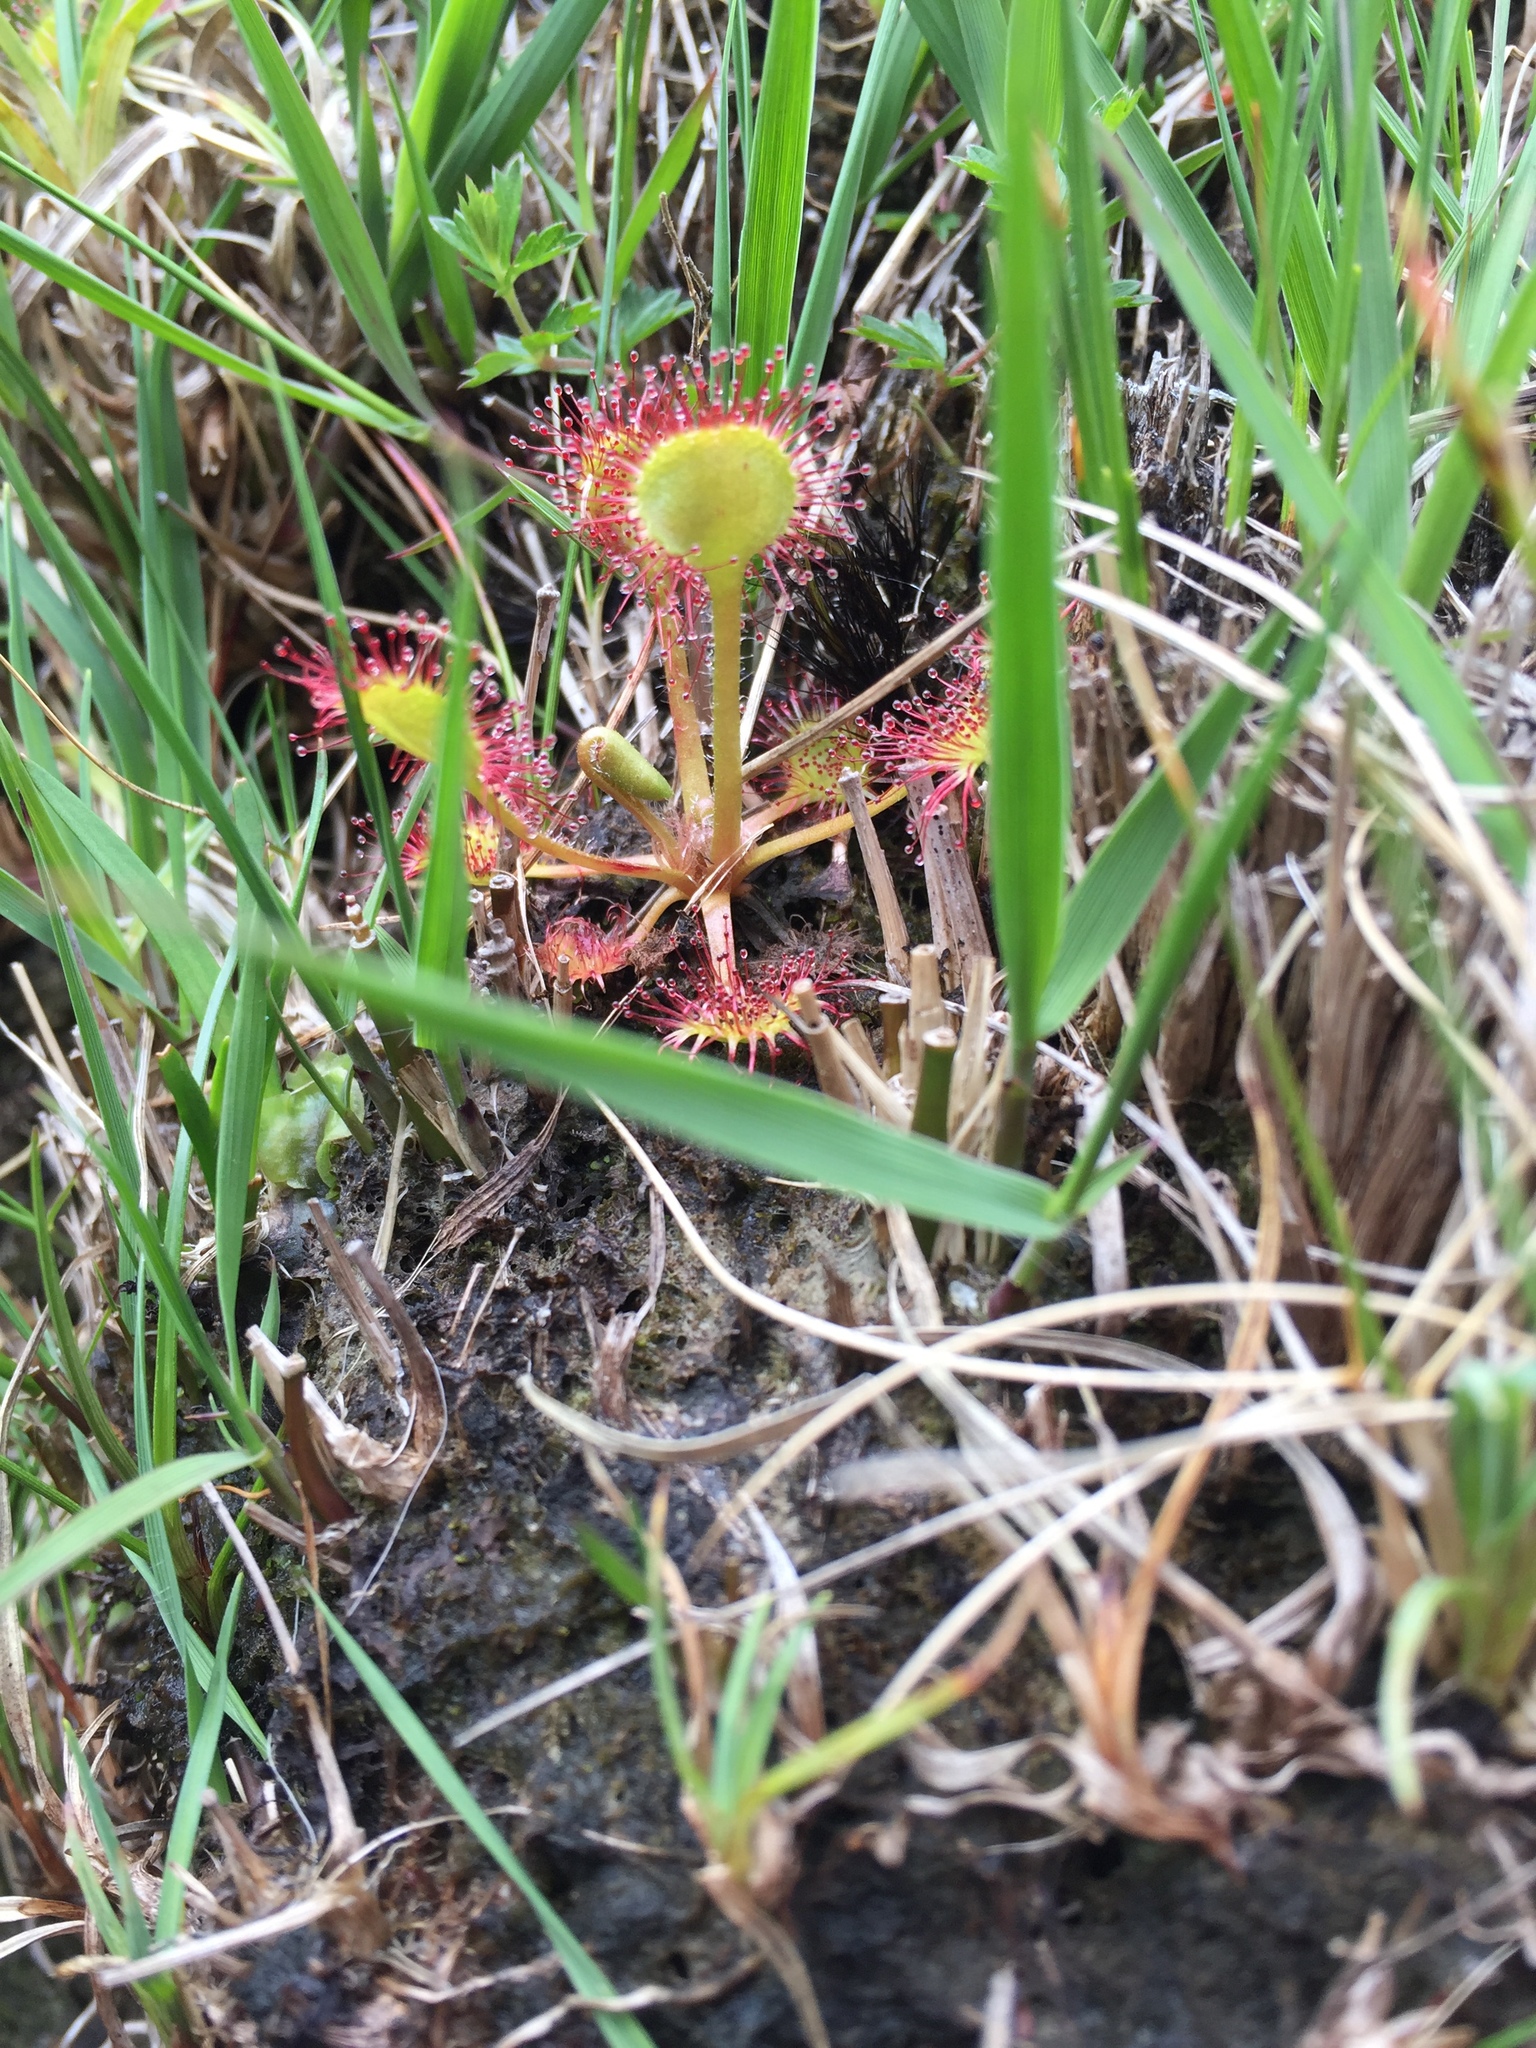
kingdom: Plantae
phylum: Tracheophyta
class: Magnoliopsida
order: Caryophyllales
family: Droseraceae
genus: Drosera
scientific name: Drosera rotundifolia
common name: Round-leaved sundew
